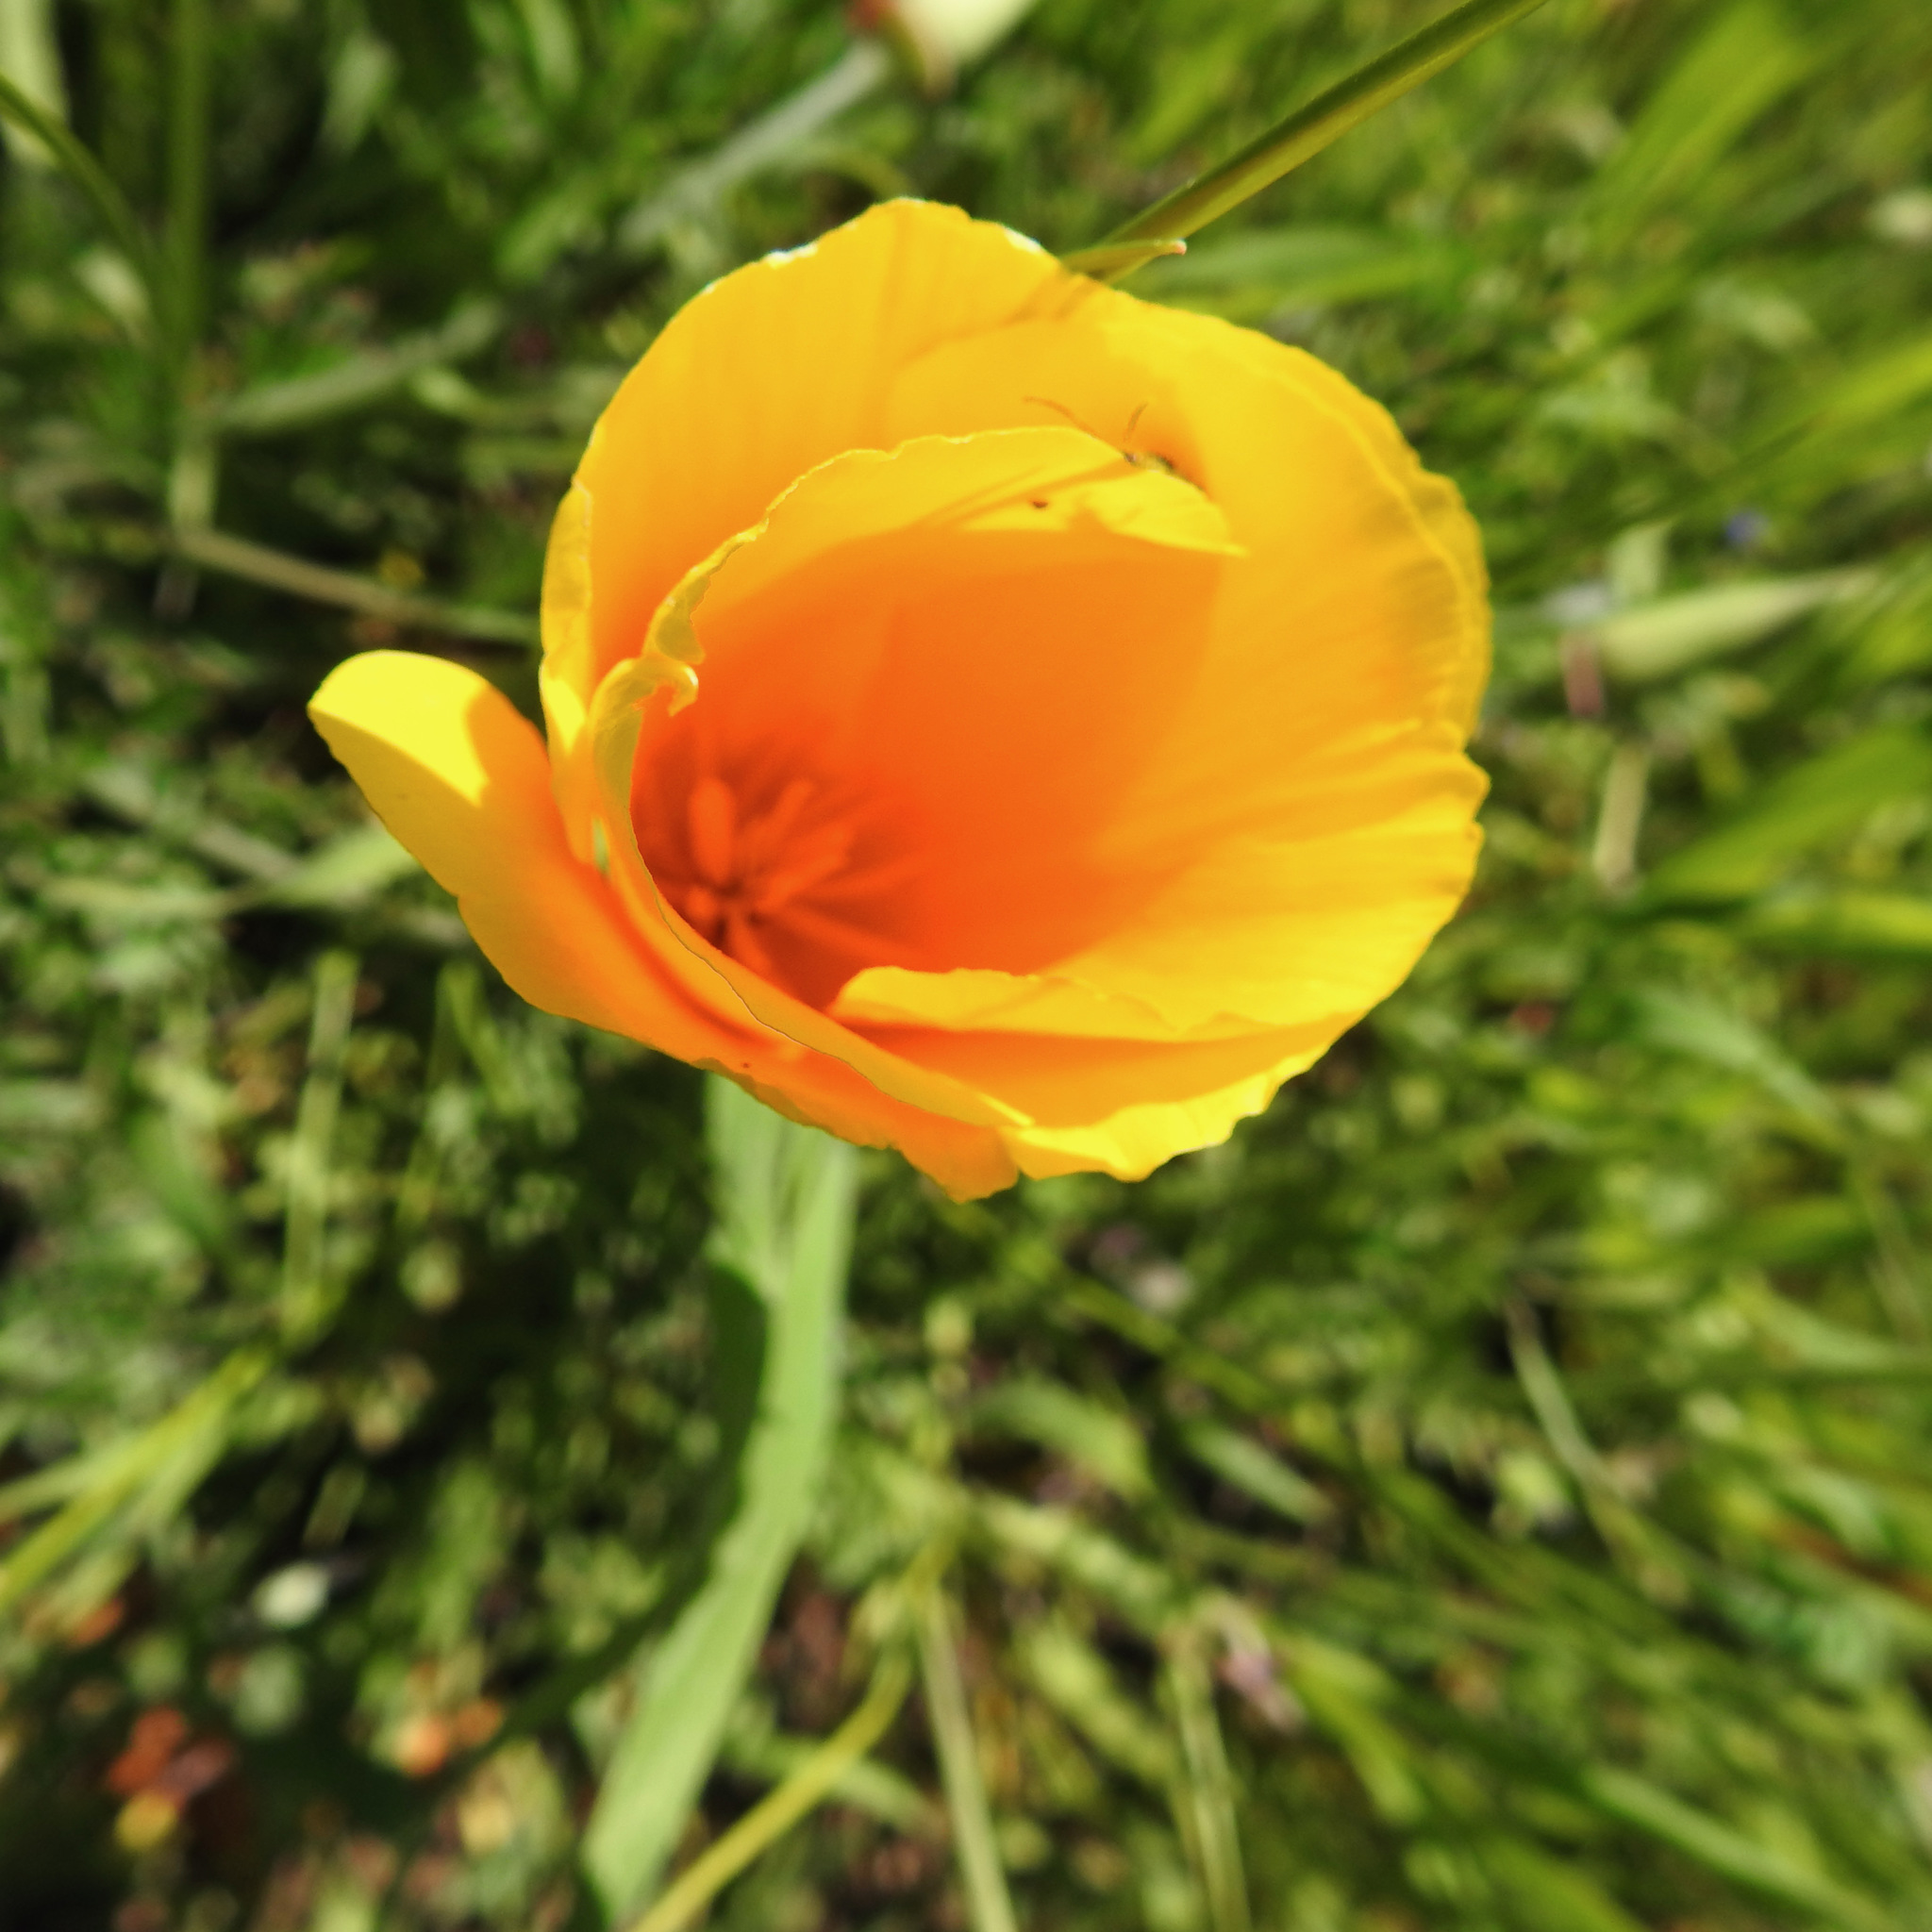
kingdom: Plantae
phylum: Tracheophyta
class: Magnoliopsida
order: Ranunculales
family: Papaveraceae
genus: Eschscholzia
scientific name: Eschscholzia californica
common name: California poppy
